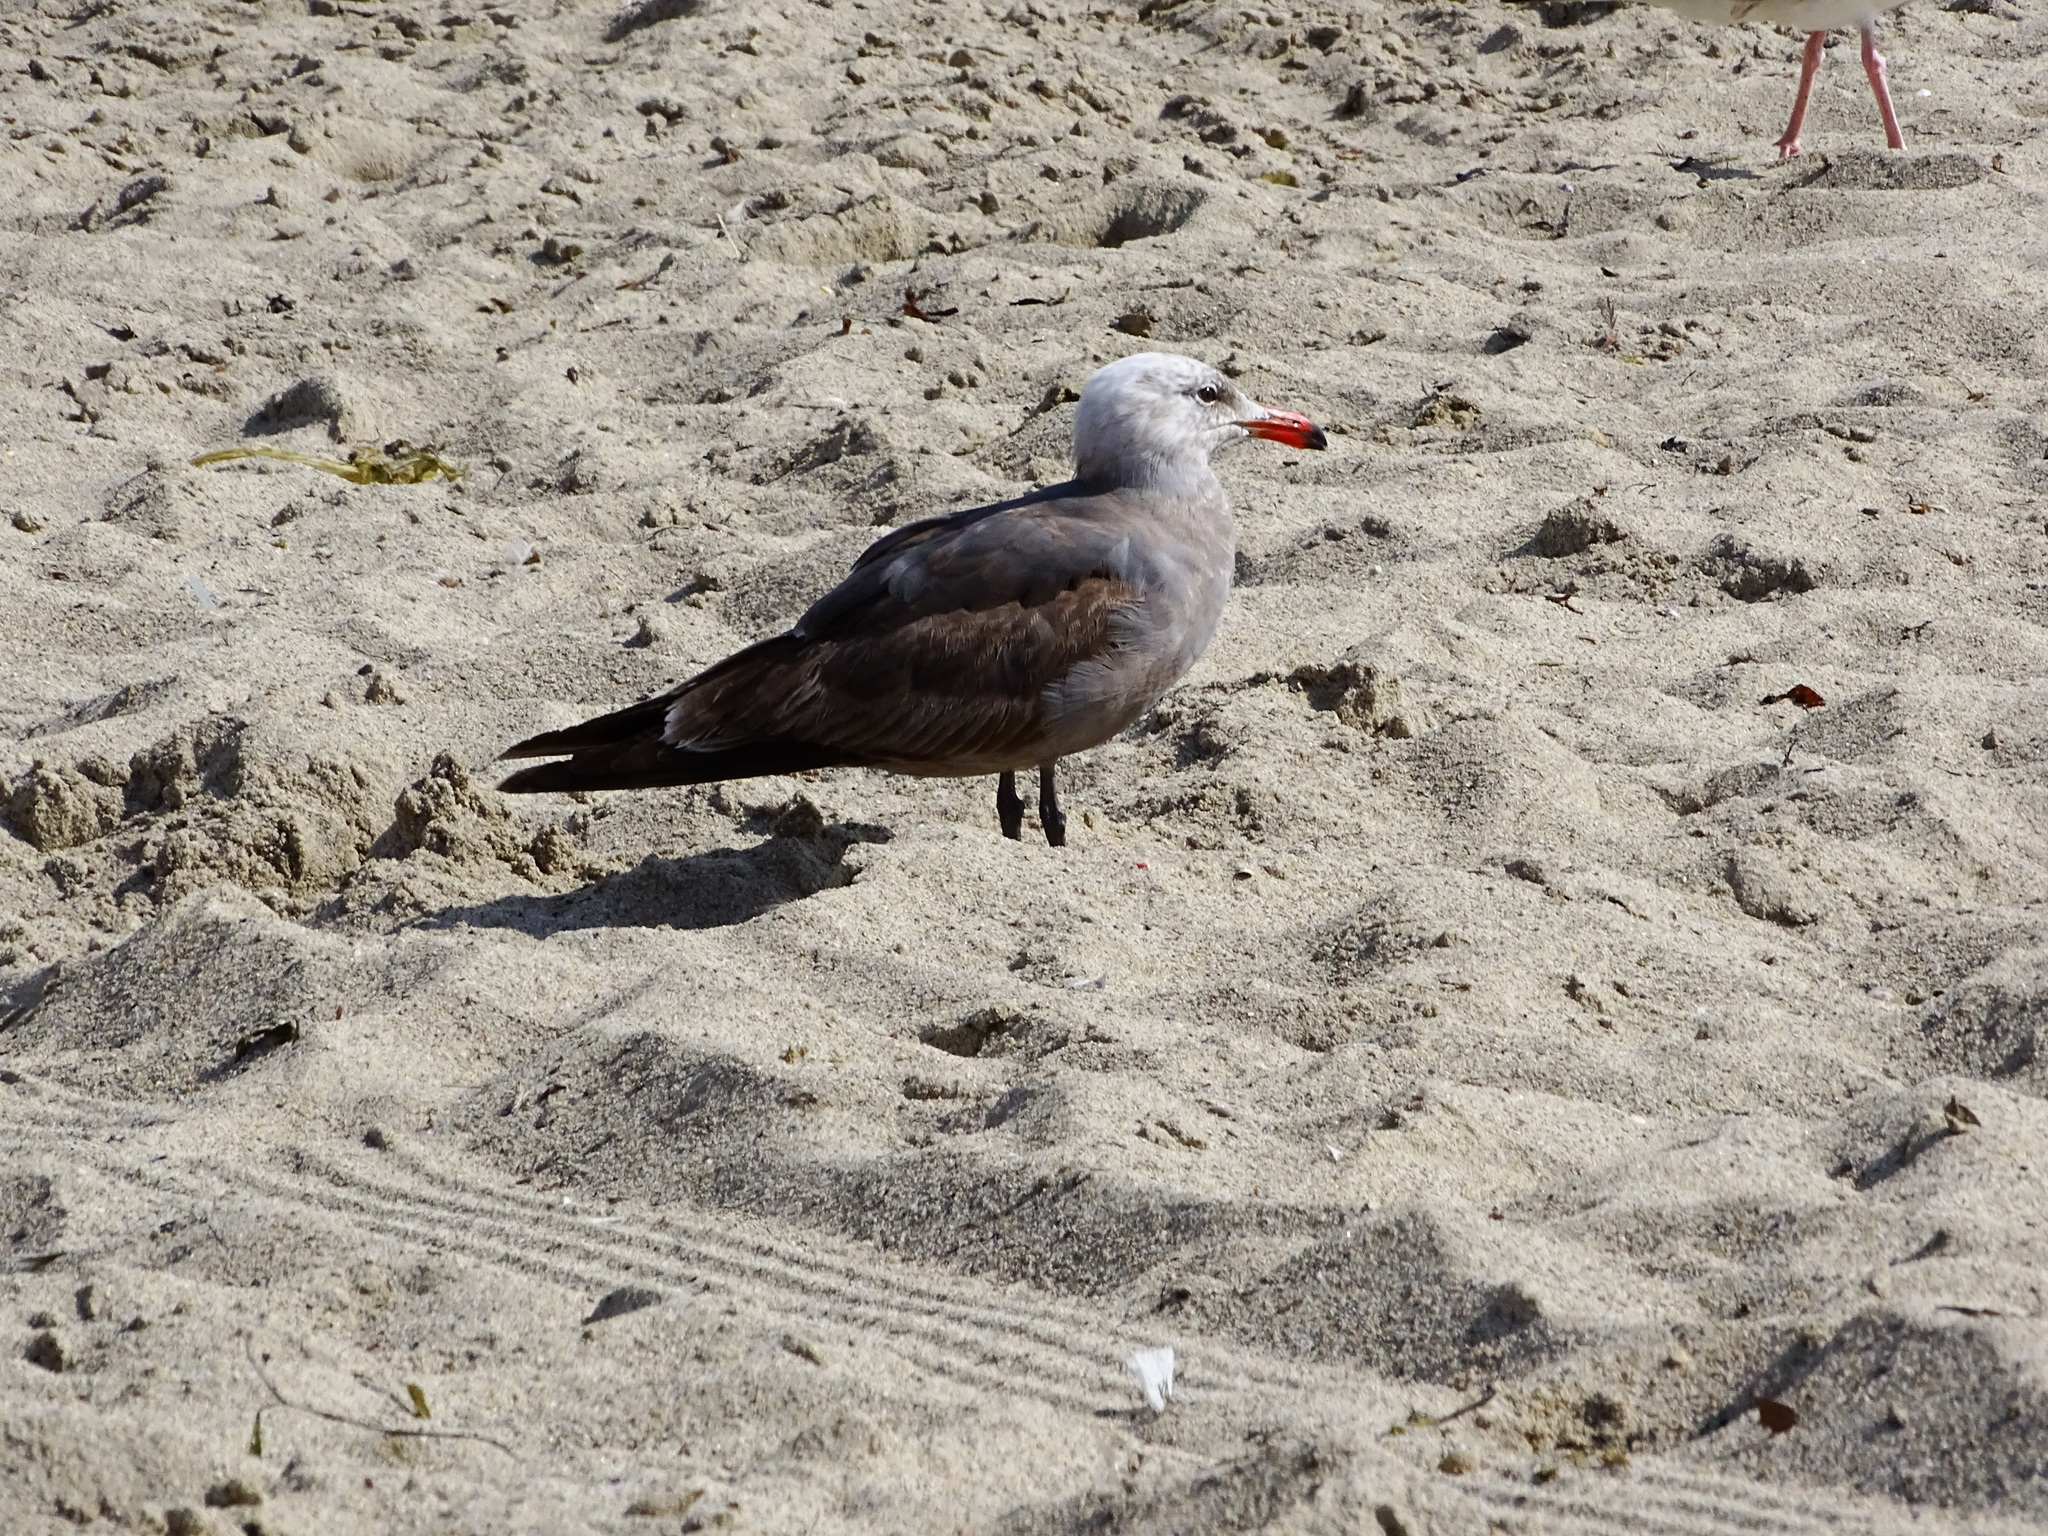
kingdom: Animalia
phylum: Chordata
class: Aves
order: Charadriiformes
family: Laridae
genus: Larus
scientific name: Larus heermanni
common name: Heermann's gull
